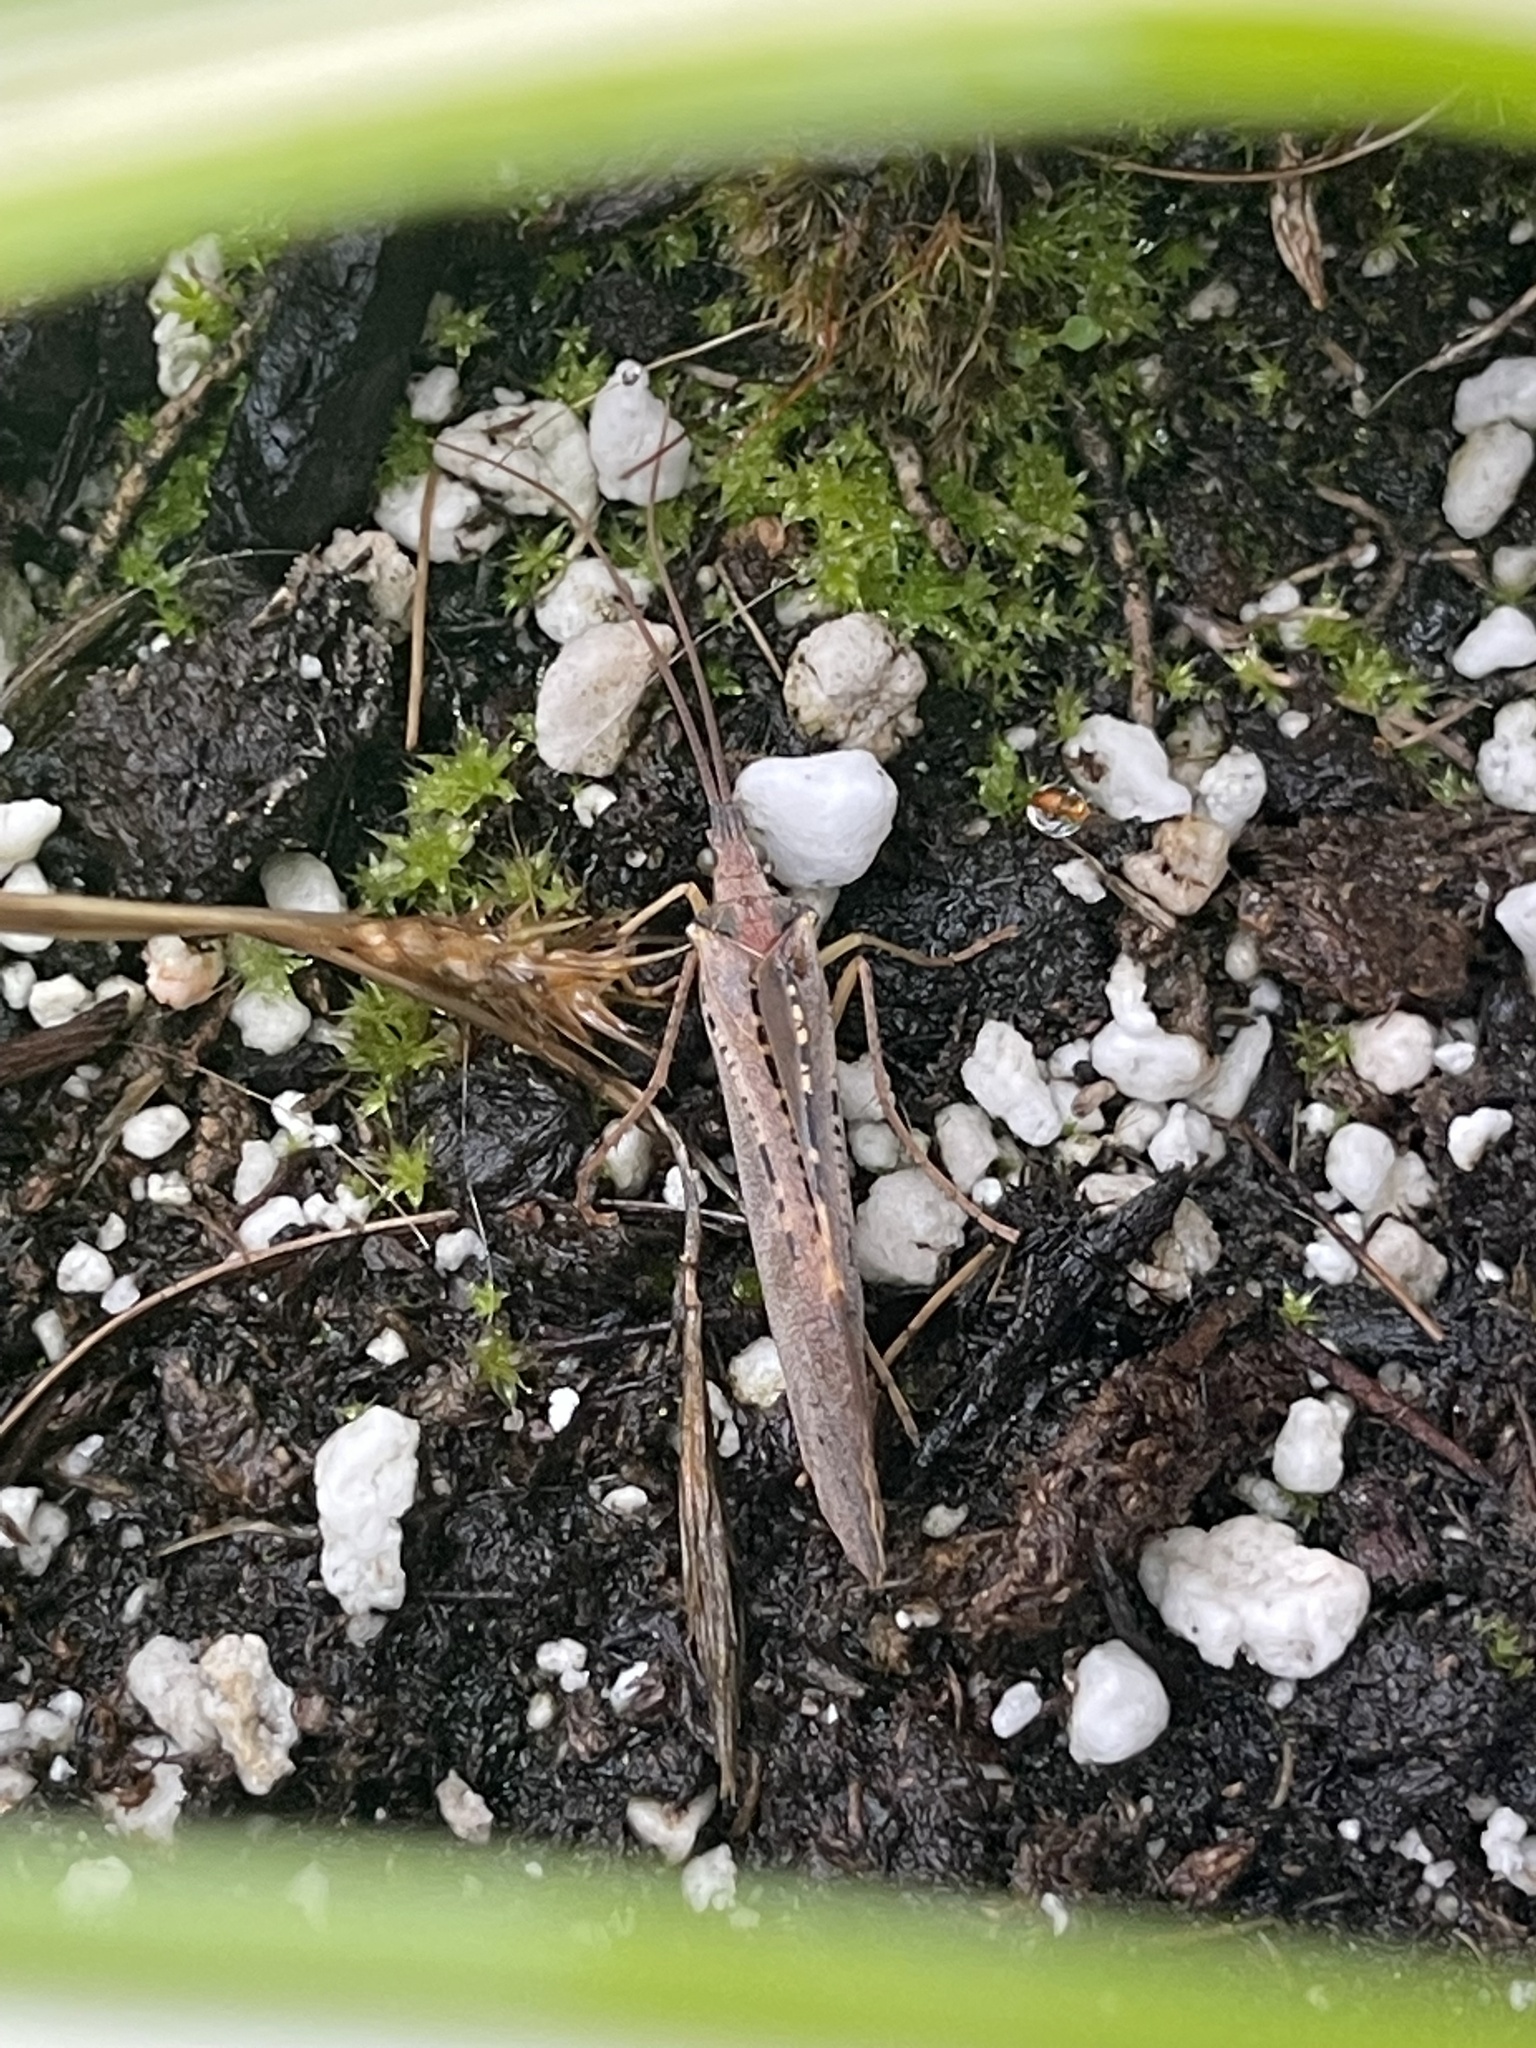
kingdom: Animalia
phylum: Arthropoda
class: Insecta
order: Trichoptera
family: Limnephilidae
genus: Nemotaulius
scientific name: Nemotaulius hostilis
